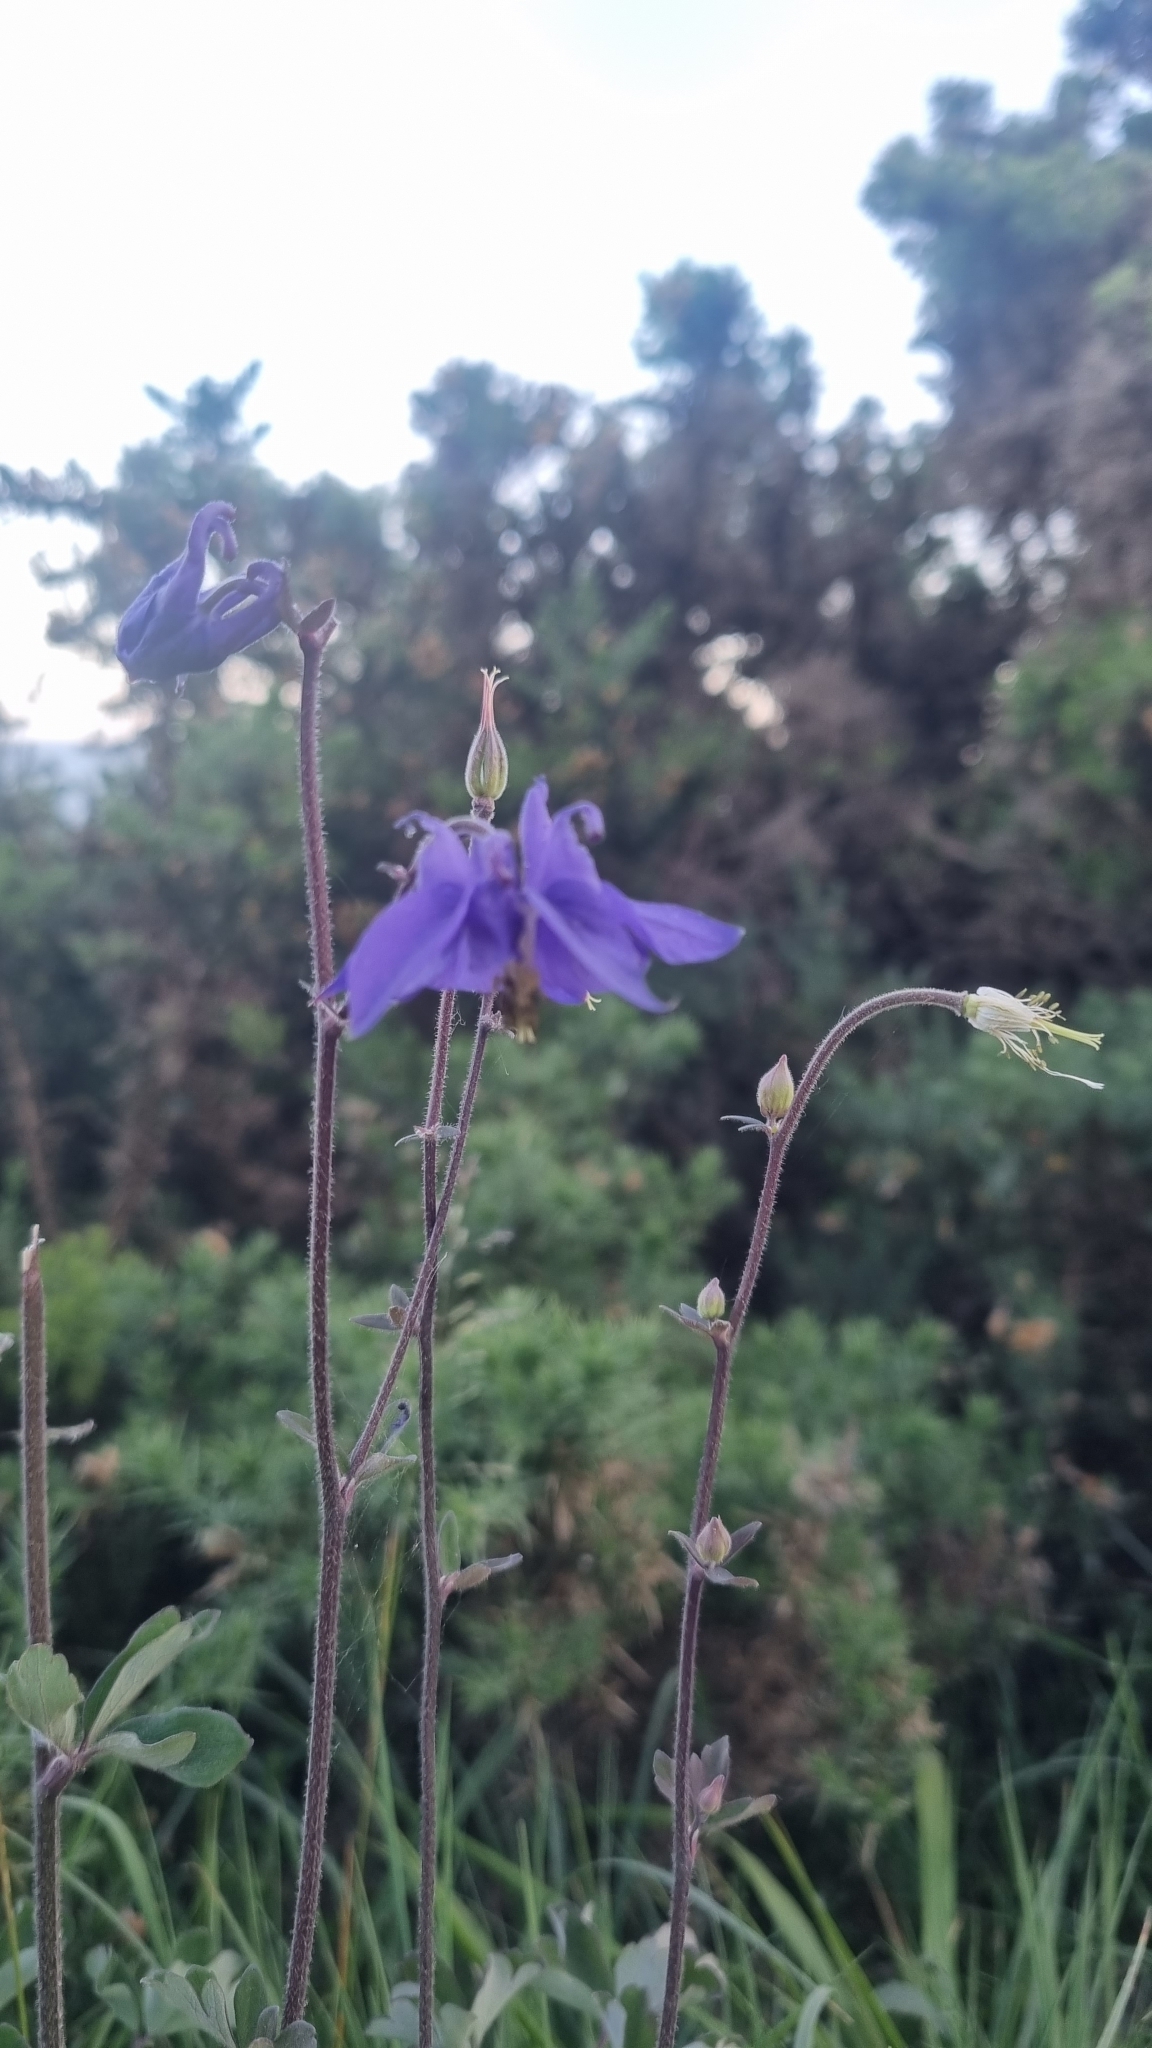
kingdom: Plantae
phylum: Tracheophyta
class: Magnoliopsida
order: Ranunculales
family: Ranunculaceae
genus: Aquilegia
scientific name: Aquilegia vulgaris
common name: Columbine
